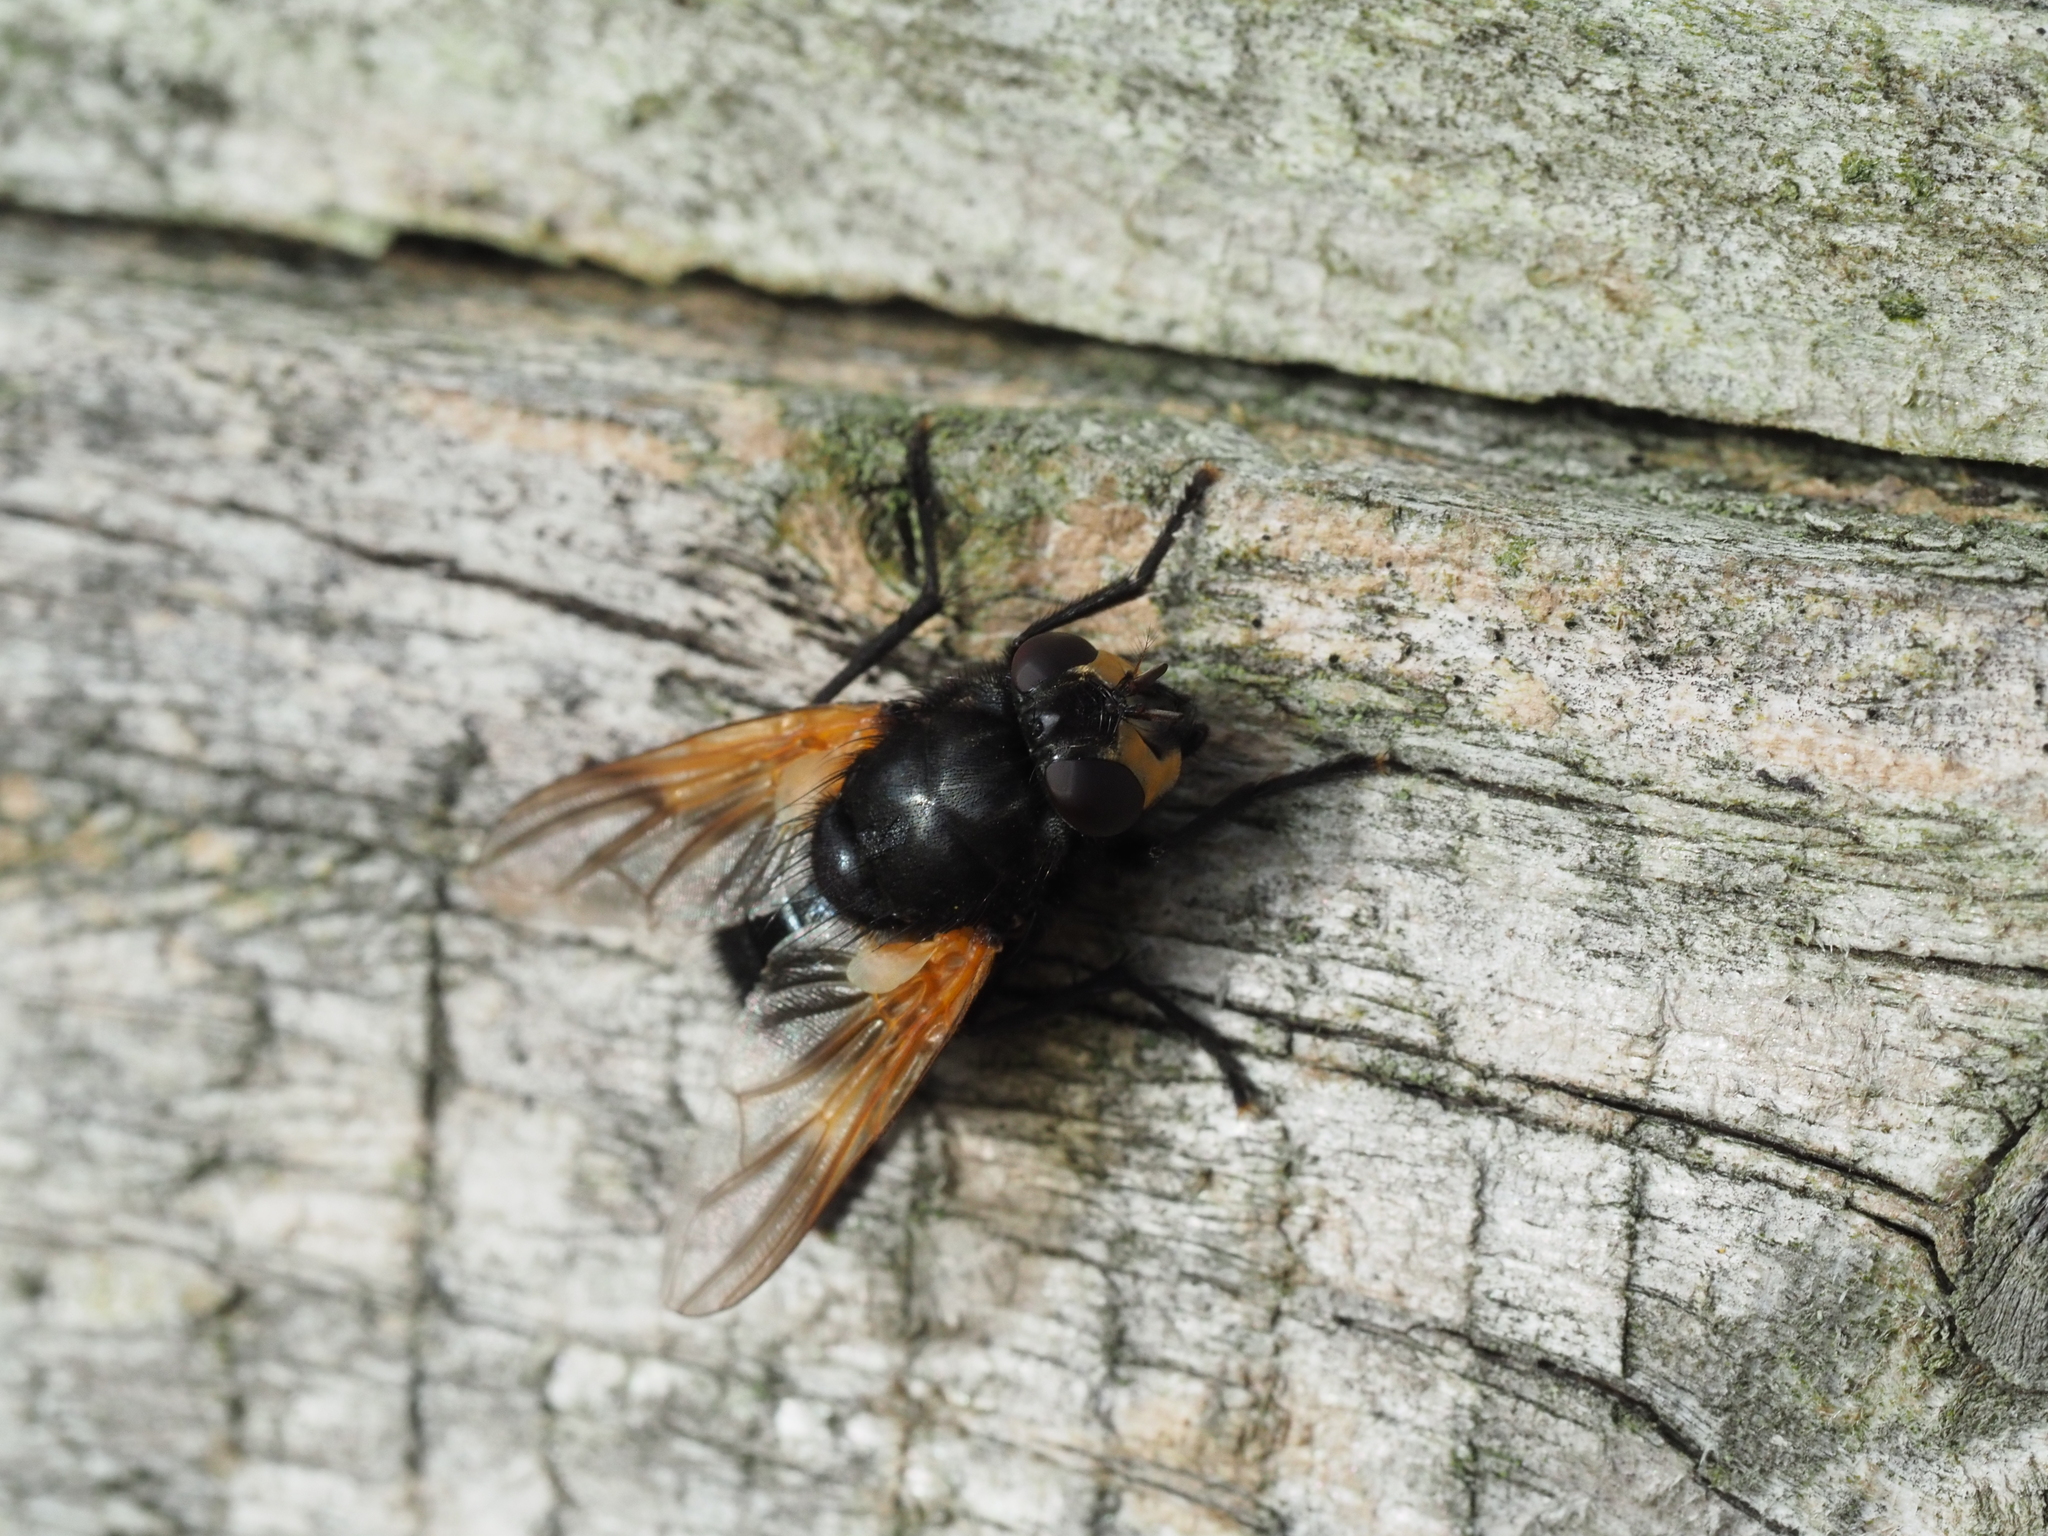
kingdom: Animalia
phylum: Arthropoda
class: Insecta
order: Diptera
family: Muscidae
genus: Mesembrina
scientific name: Mesembrina meridiana
